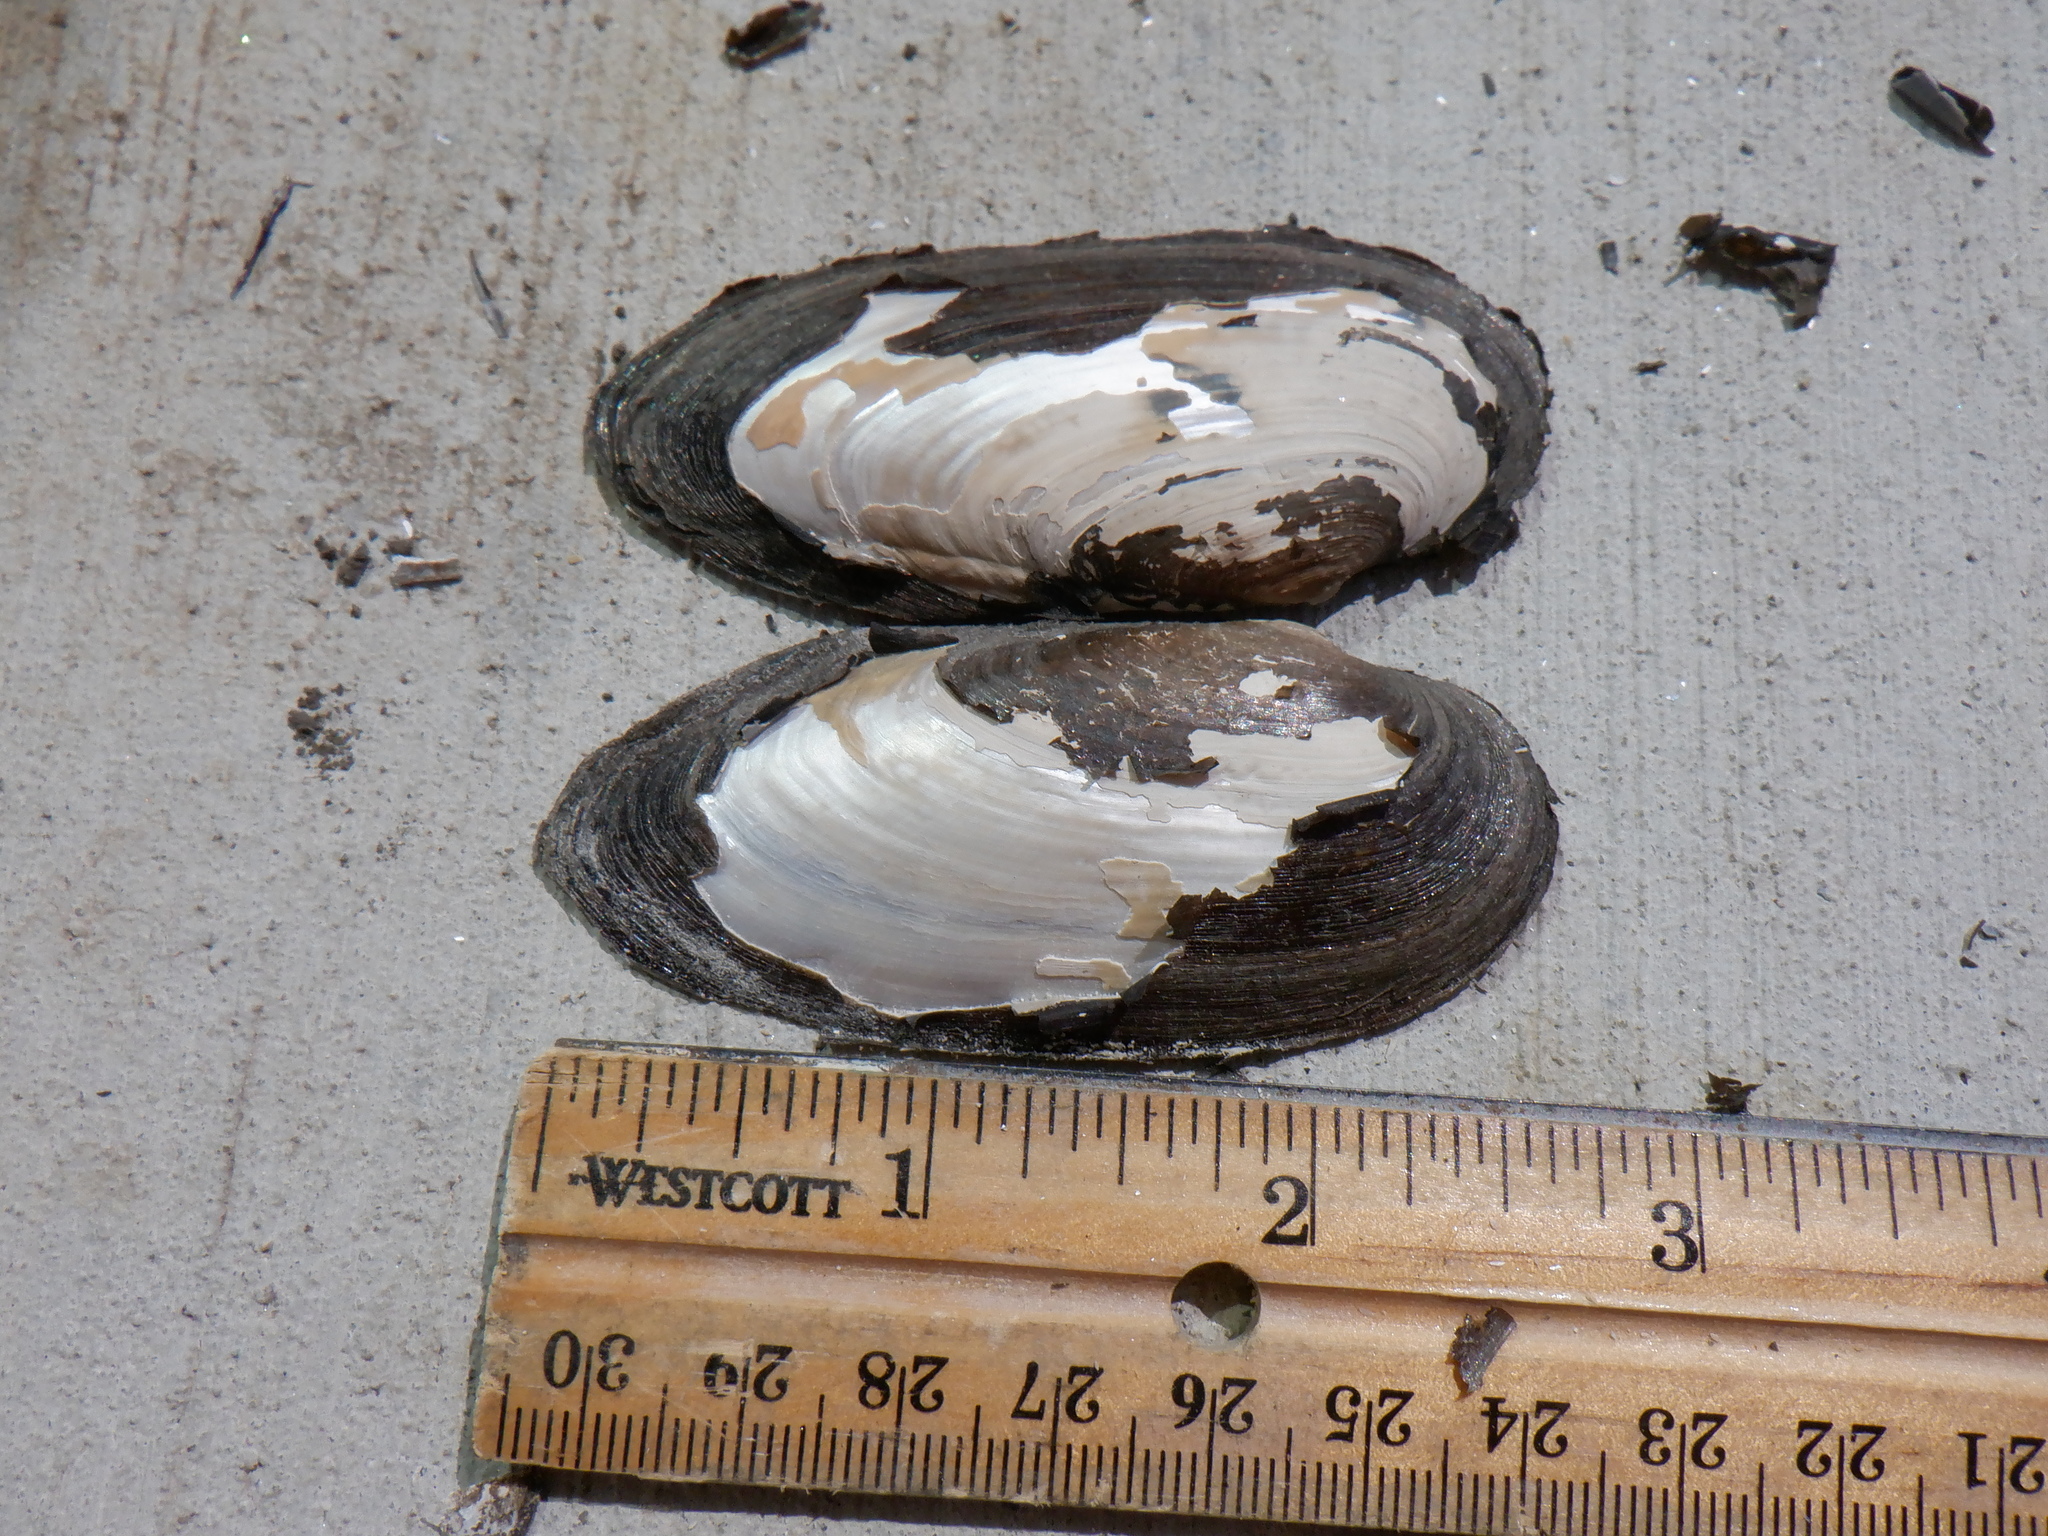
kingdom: Animalia
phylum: Mollusca
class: Bivalvia
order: Unionida
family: Unionidae
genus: Eurynia
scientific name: Eurynia dilatata
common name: Spike
